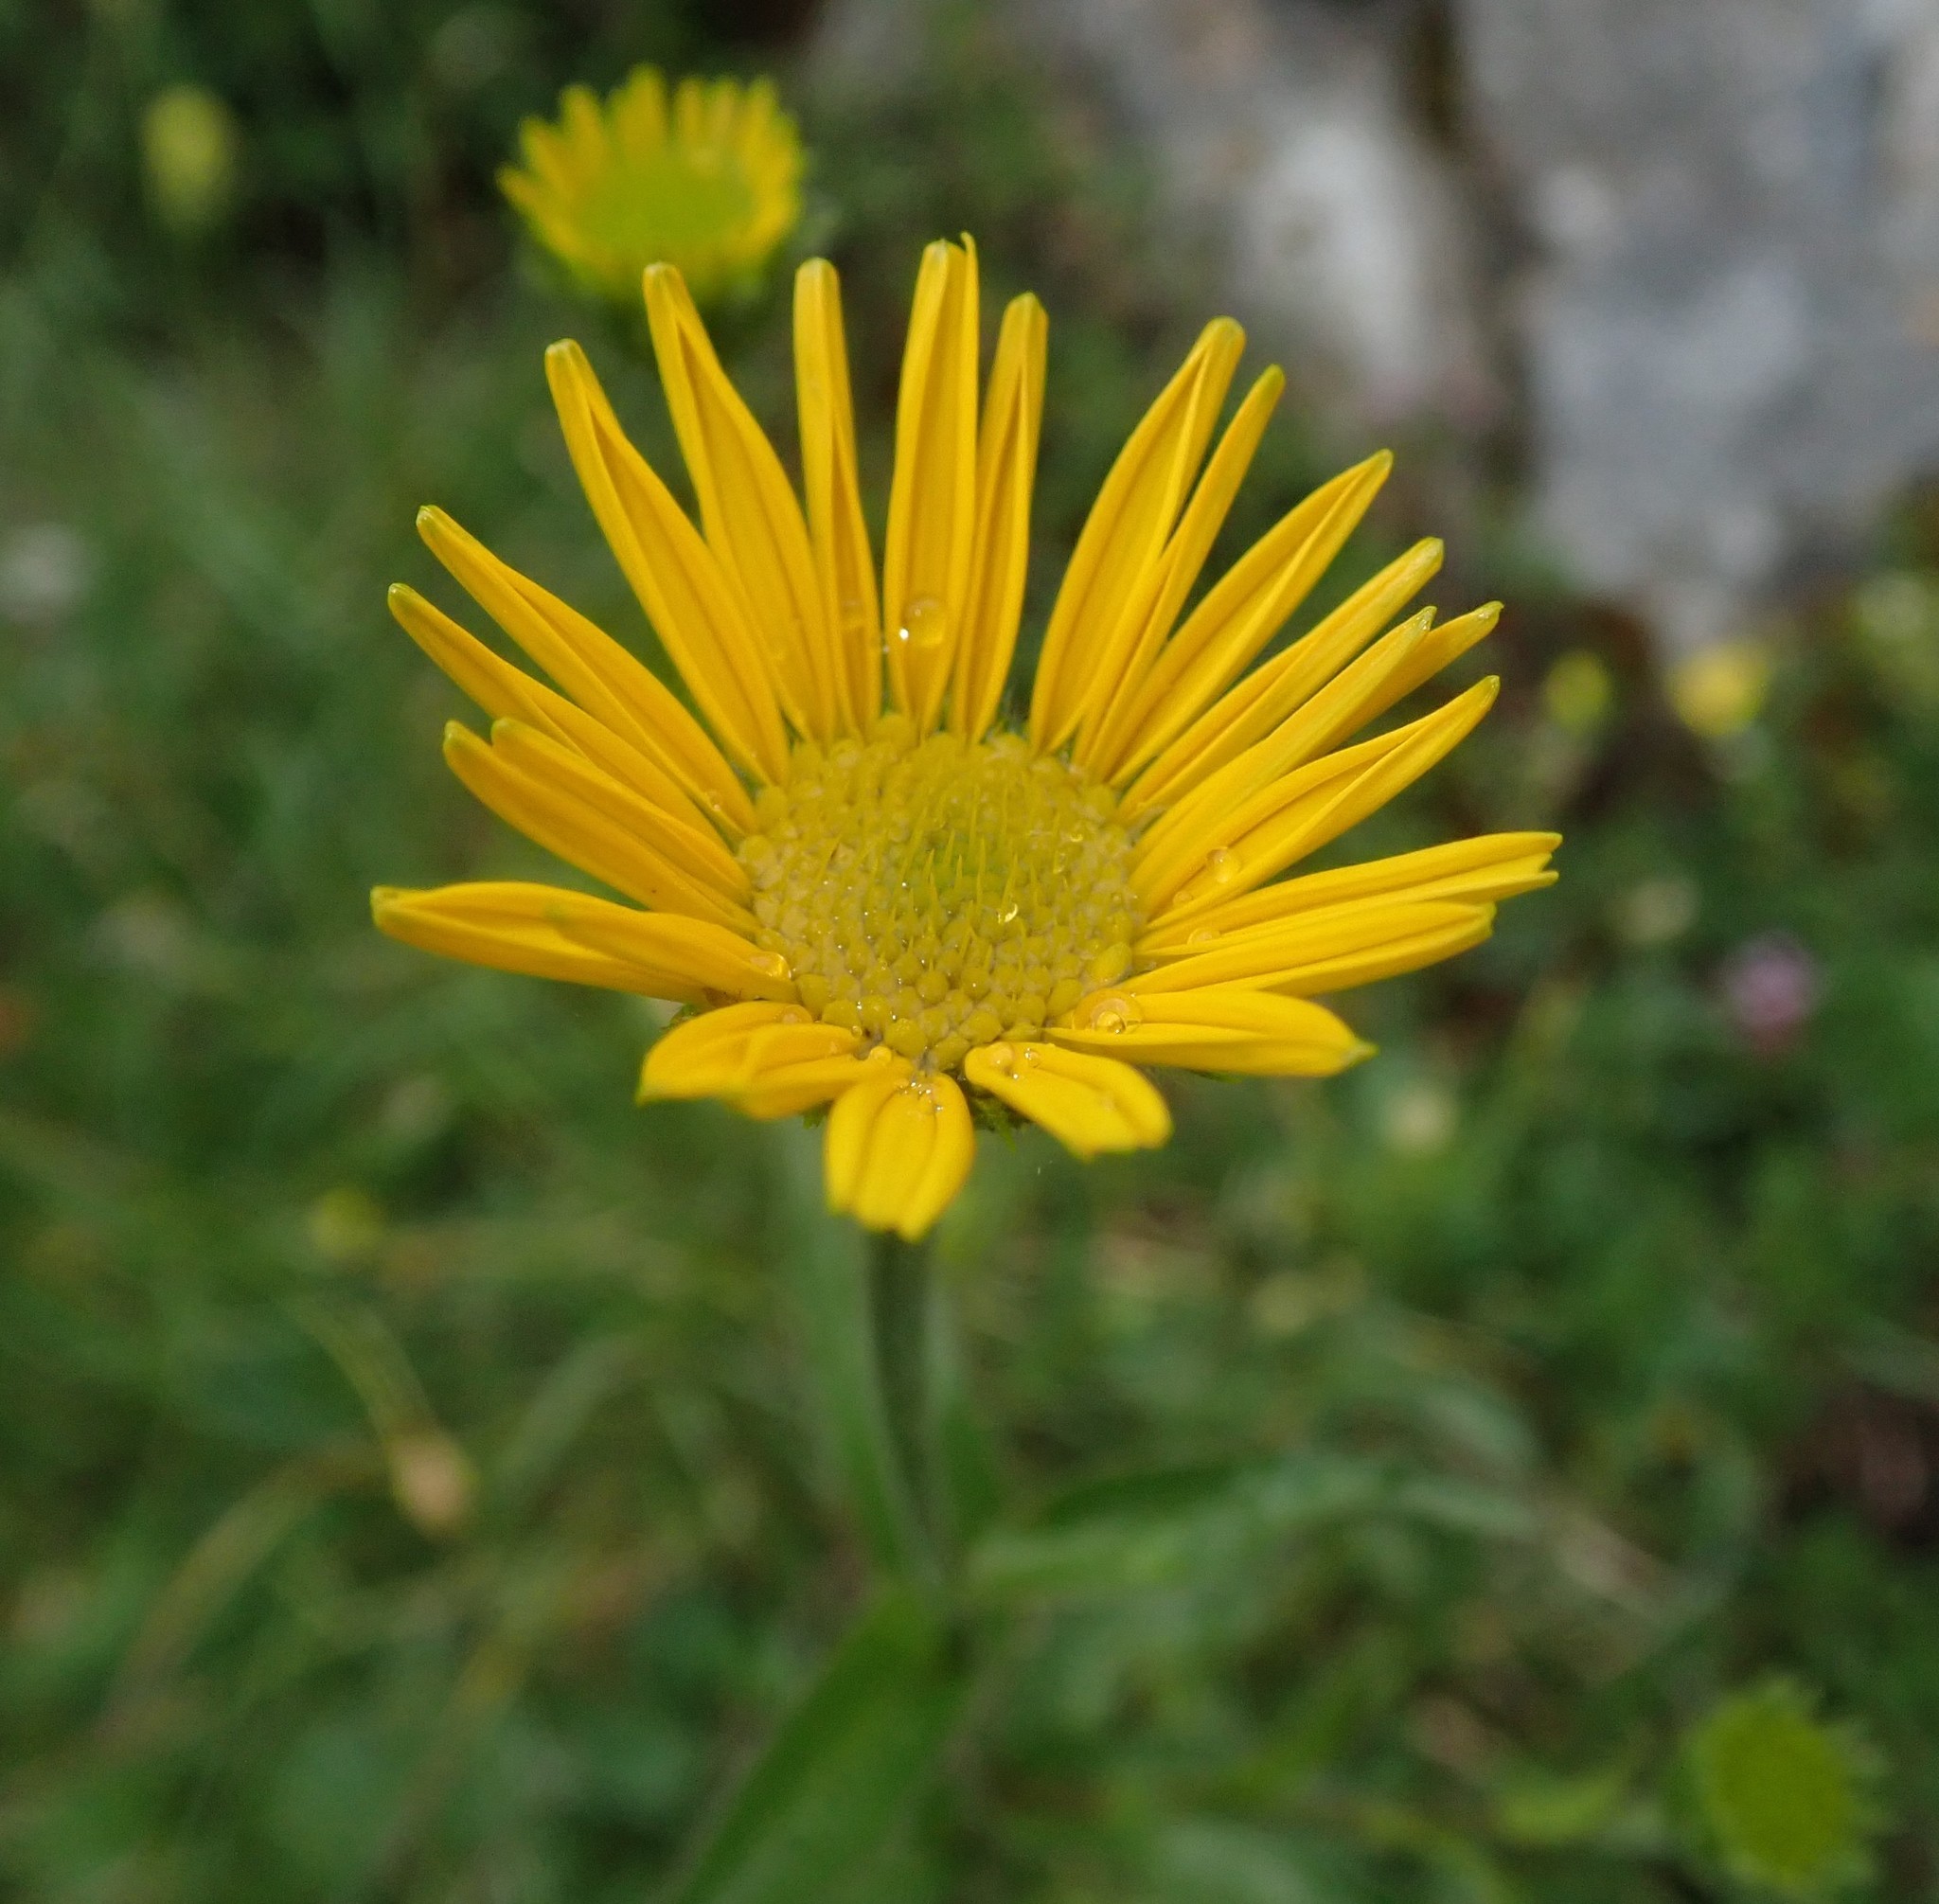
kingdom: Plantae
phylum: Tracheophyta
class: Magnoliopsida
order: Asterales
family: Asteraceae
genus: Buphthalmum
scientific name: Buphthalmum salicifolium
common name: Willow-leaved yellow-oxeye
